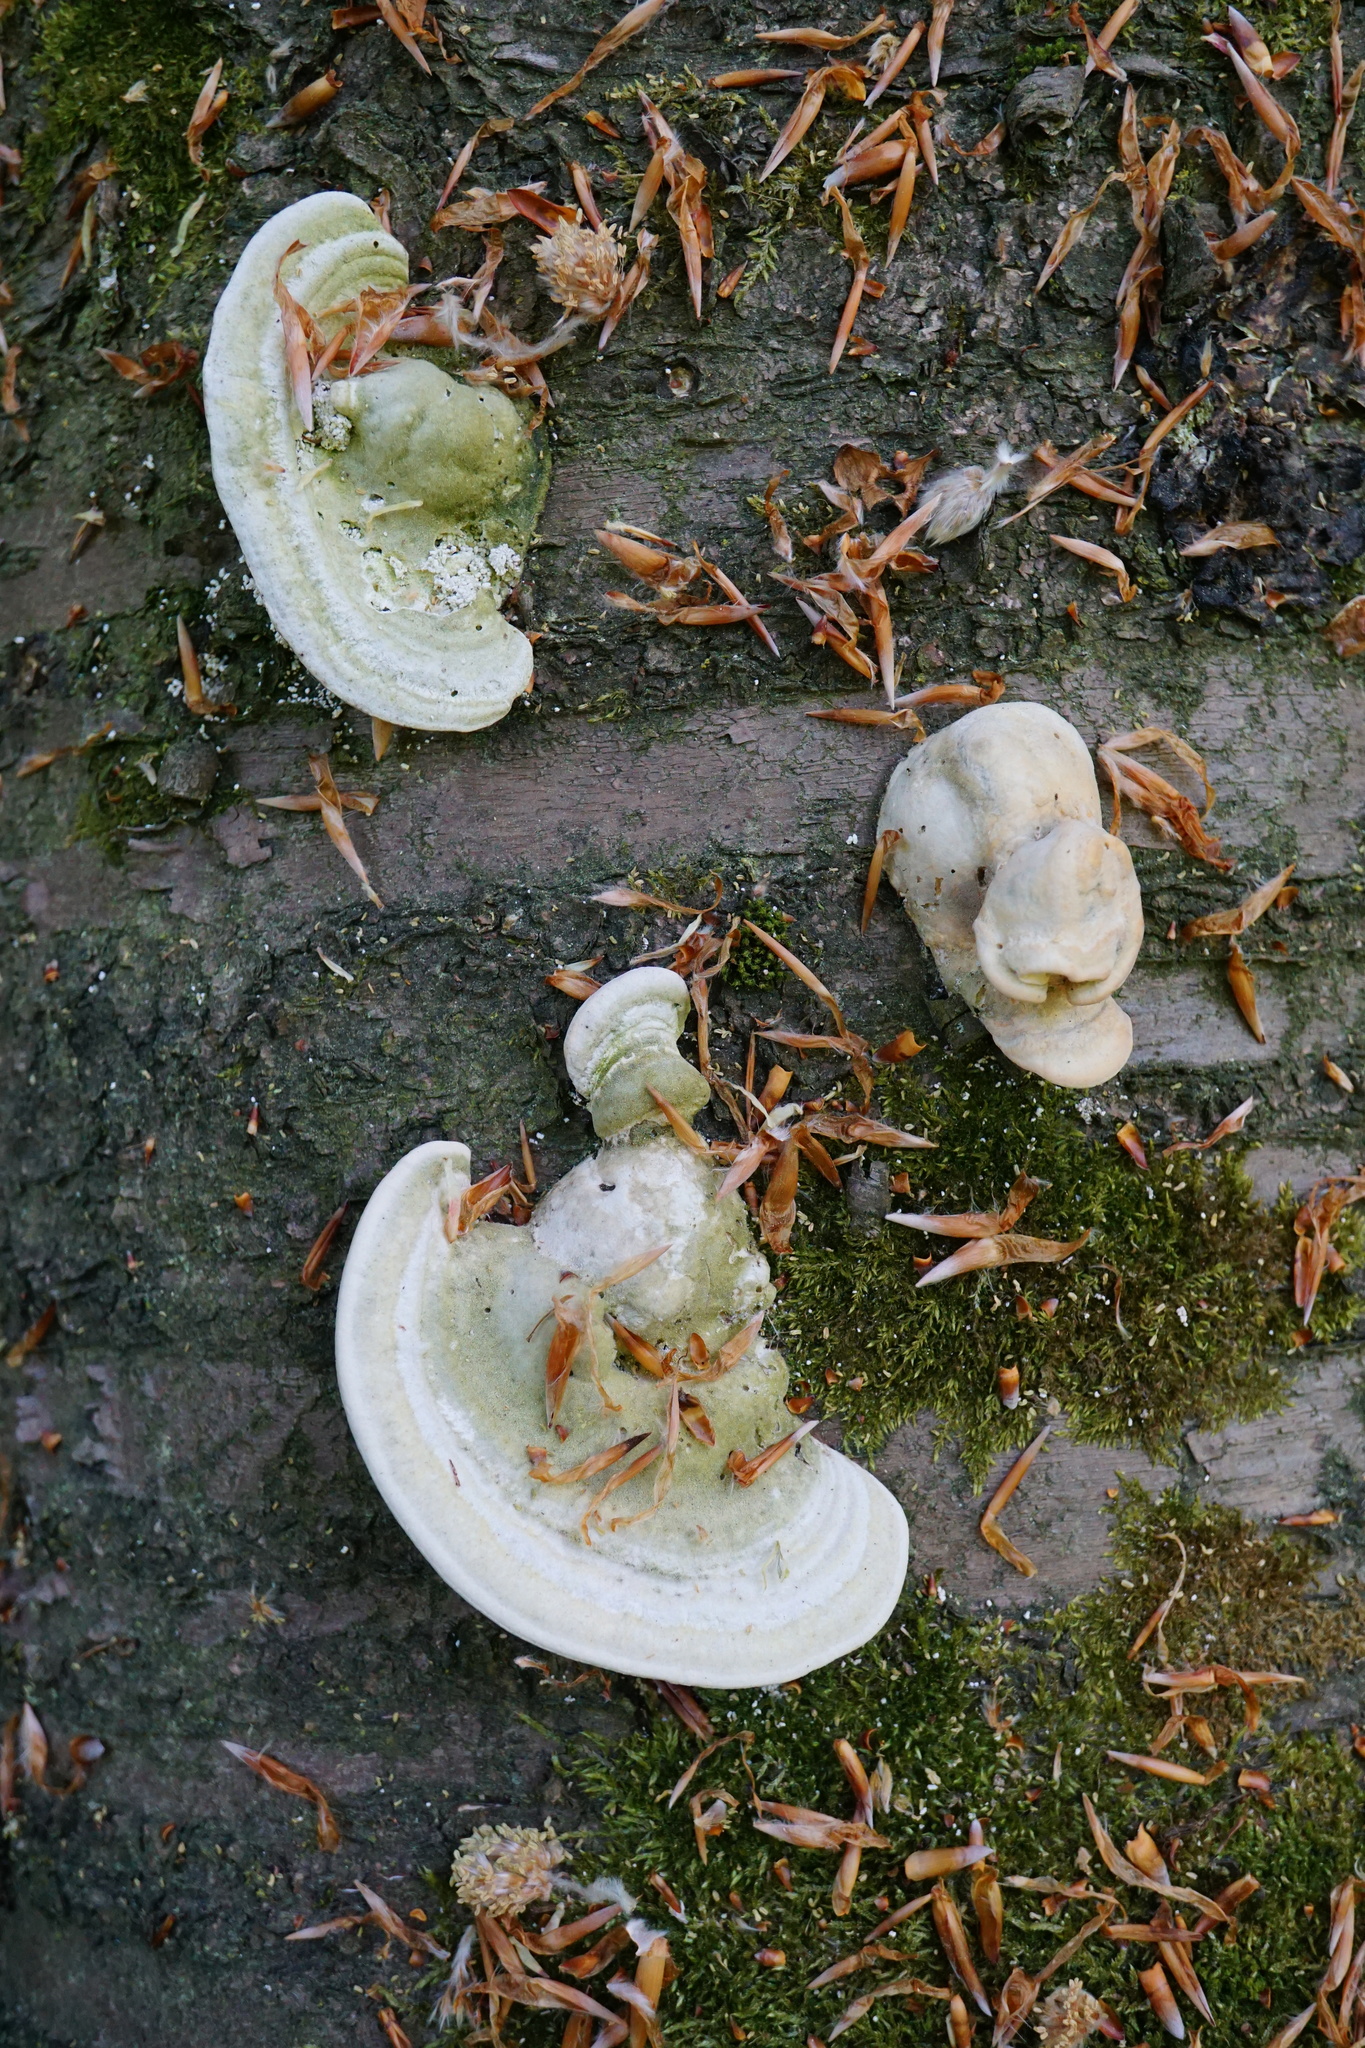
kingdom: Fungi
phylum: Basidiomycota
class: Agaricomycetes
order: Polyporales
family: Polyporaceae
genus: Trametes
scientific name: Trametes gibbosa
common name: Lumpy bracket
